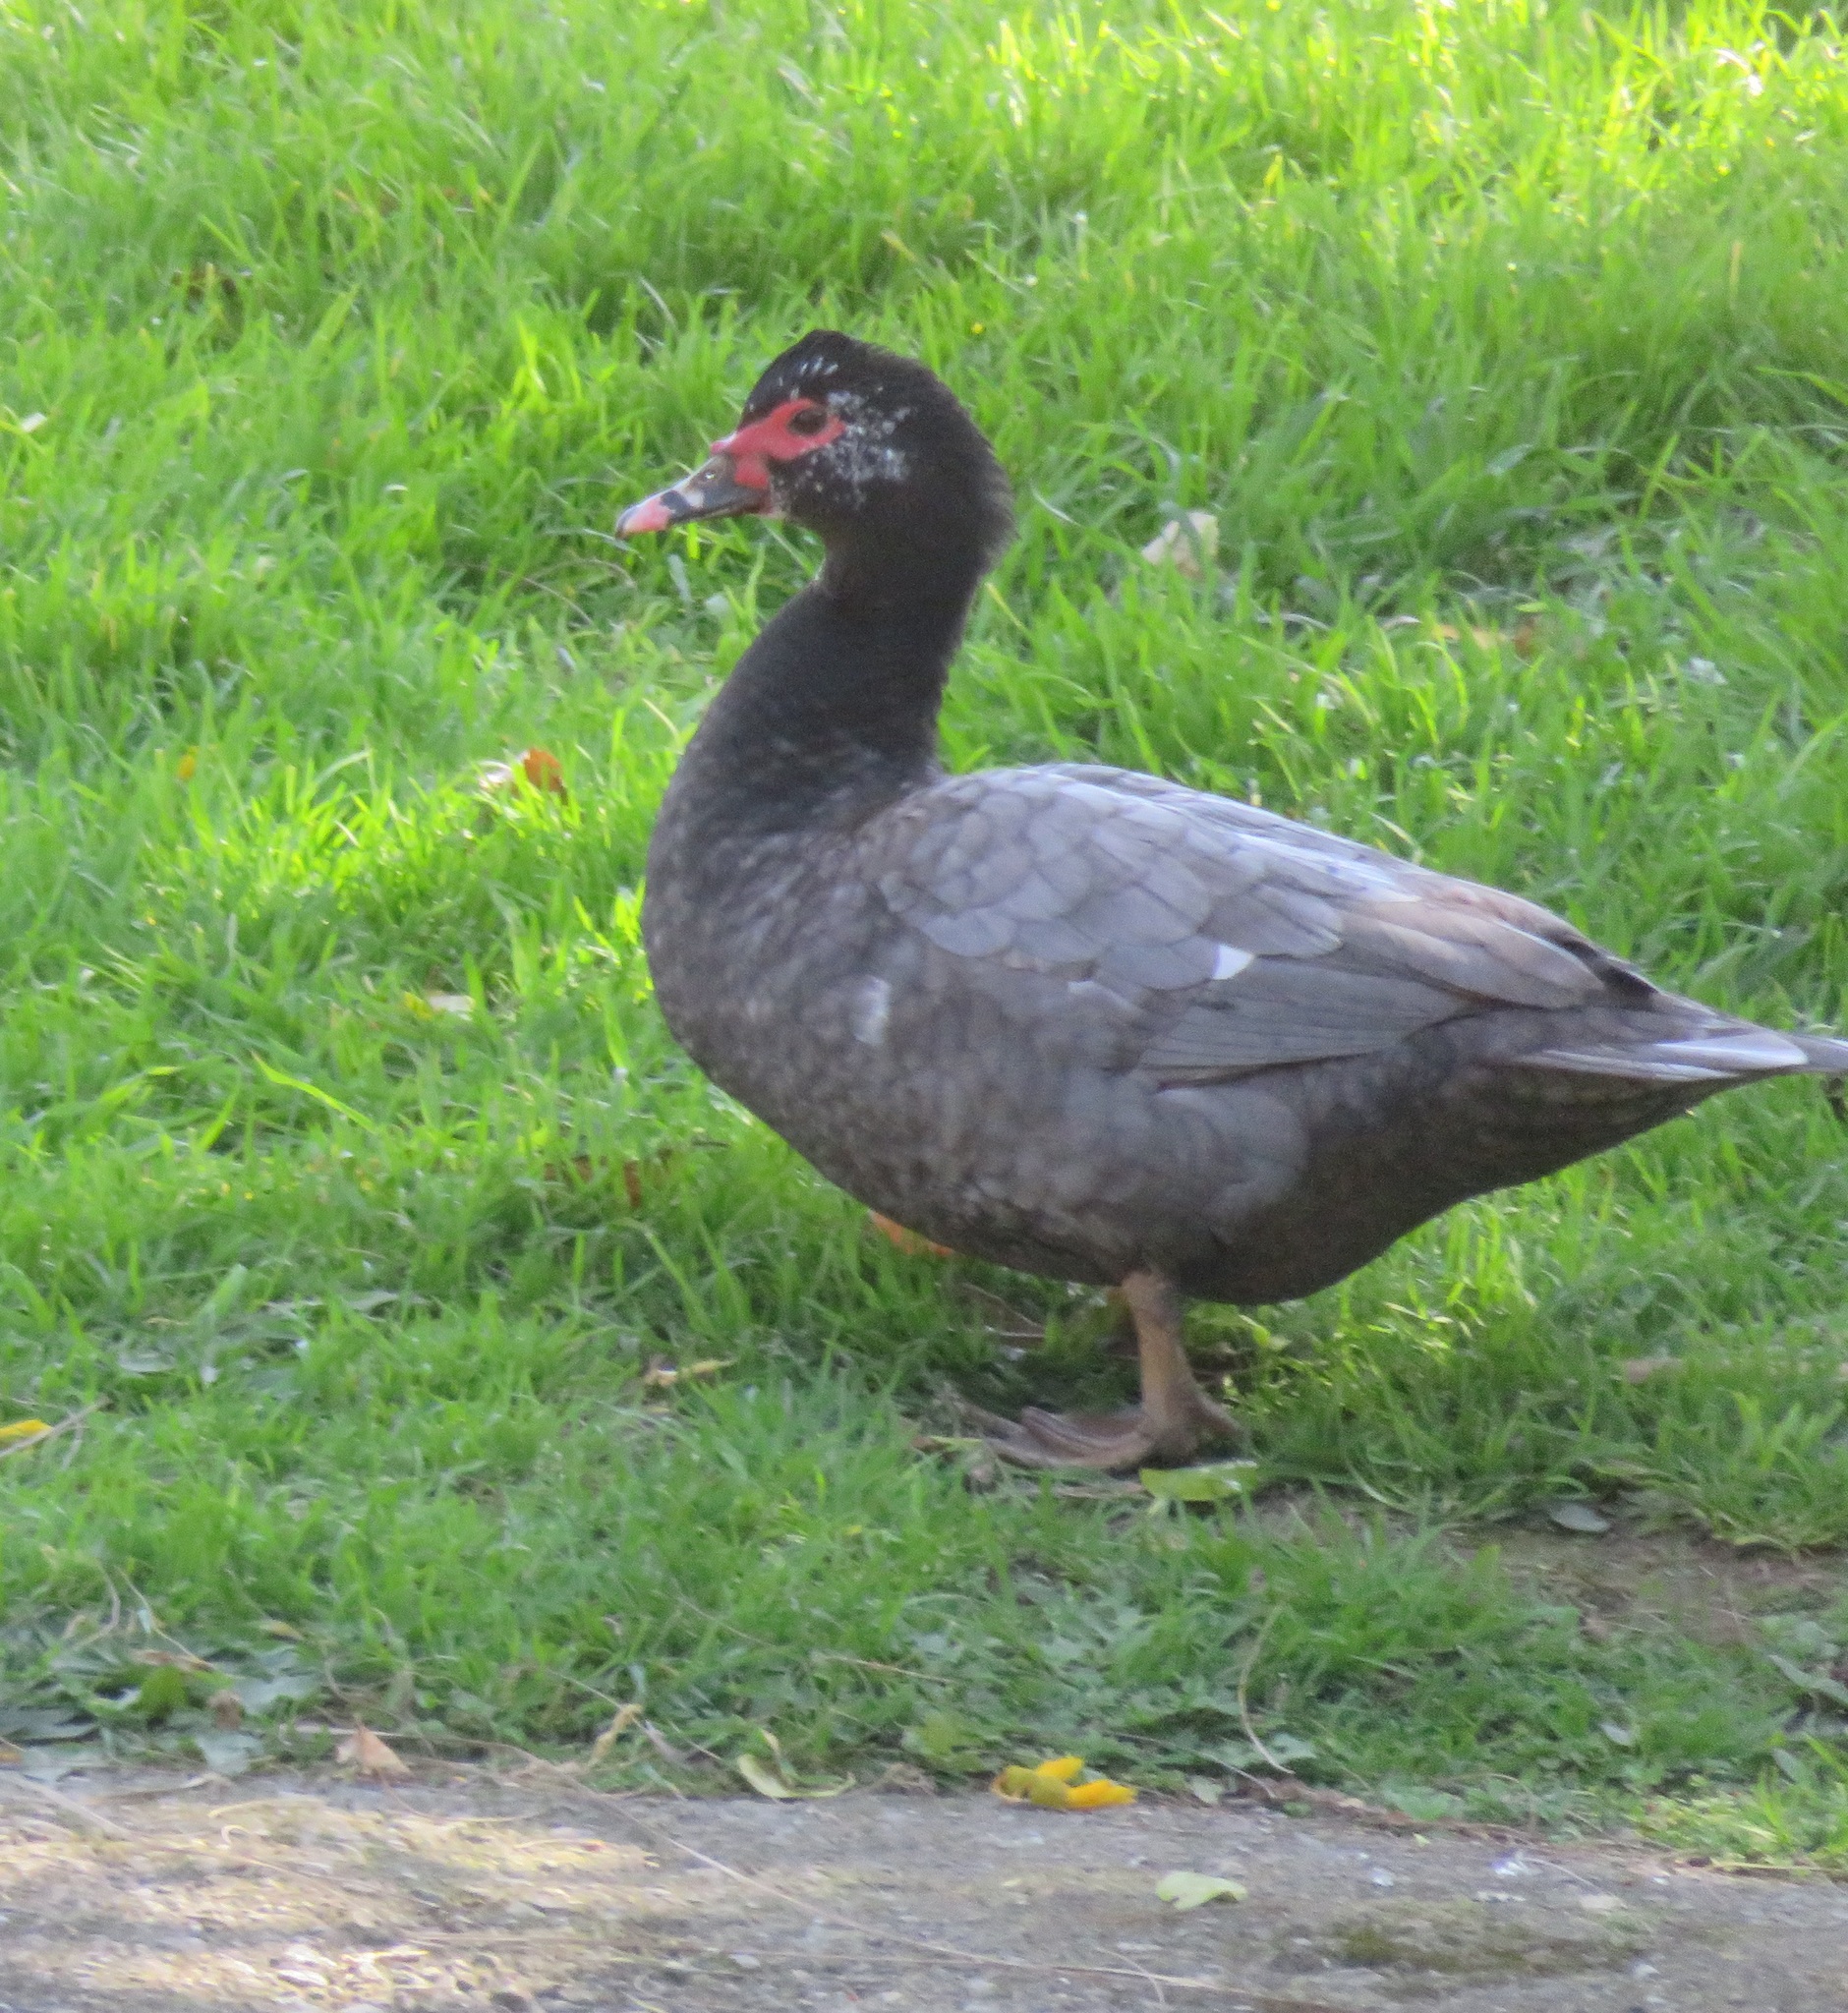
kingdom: Animalia
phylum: Chordata
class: Aves
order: Anseriformes
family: Anatidae
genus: Cairina
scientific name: Cairina moschata
